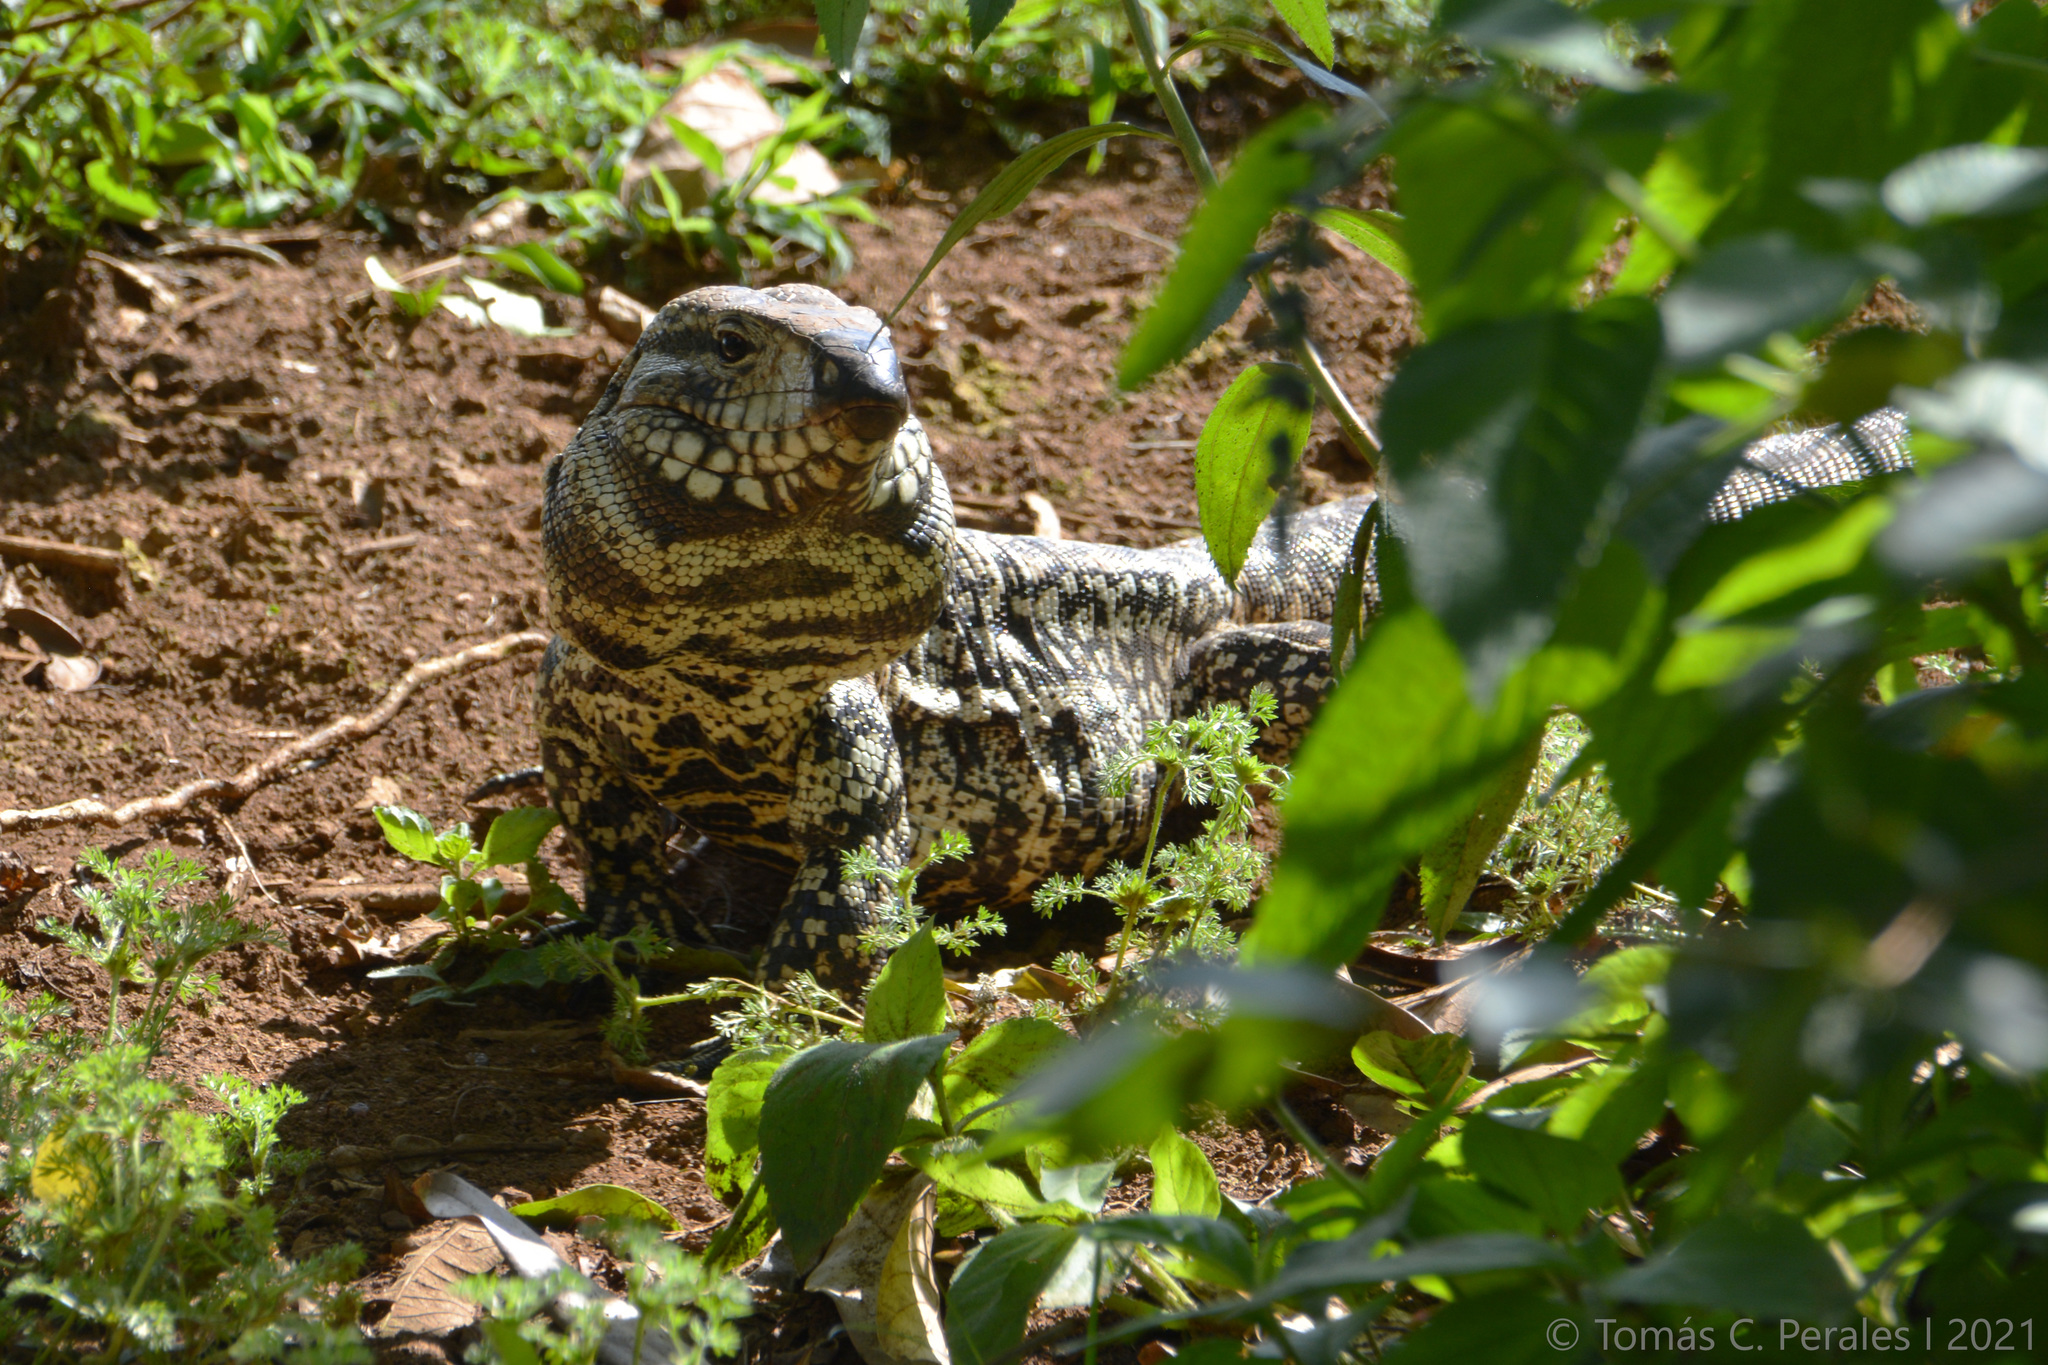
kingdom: Animalia
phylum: Chordata
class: Squamata
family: Teiidae
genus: Salvator
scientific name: Salvator merianae
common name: Argentine black and white tegu
